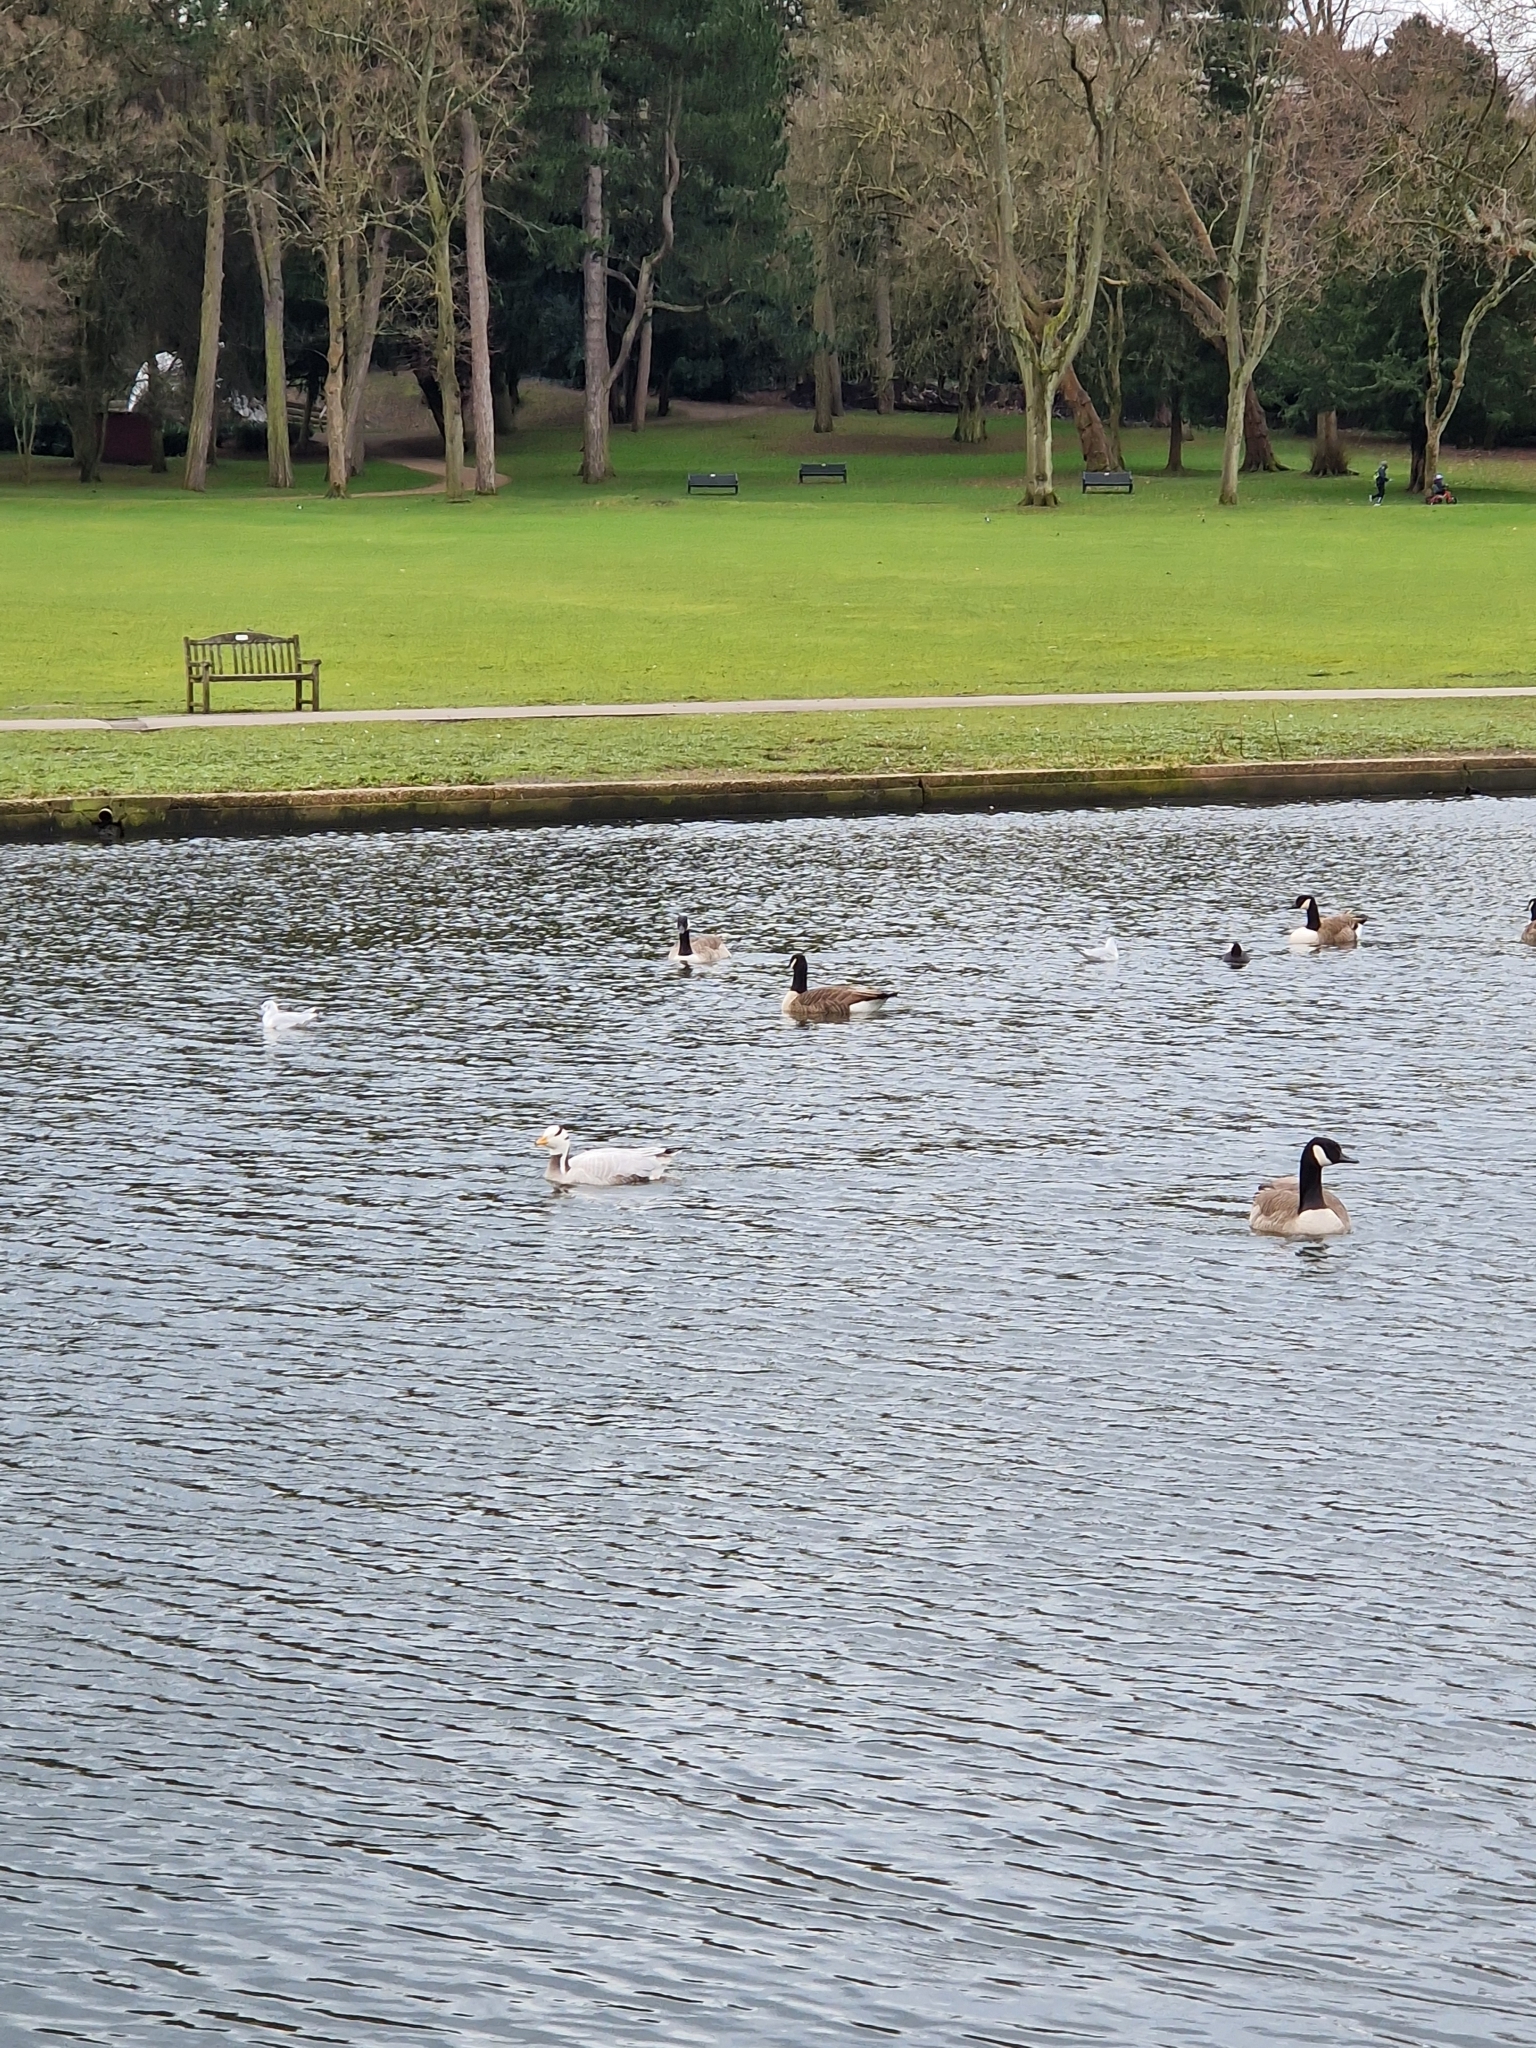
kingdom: Animalia
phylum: Chordata
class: Aves
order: Anseriformes
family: Anatidae
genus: Anser
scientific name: Anser indicus
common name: Bar-headed goose
